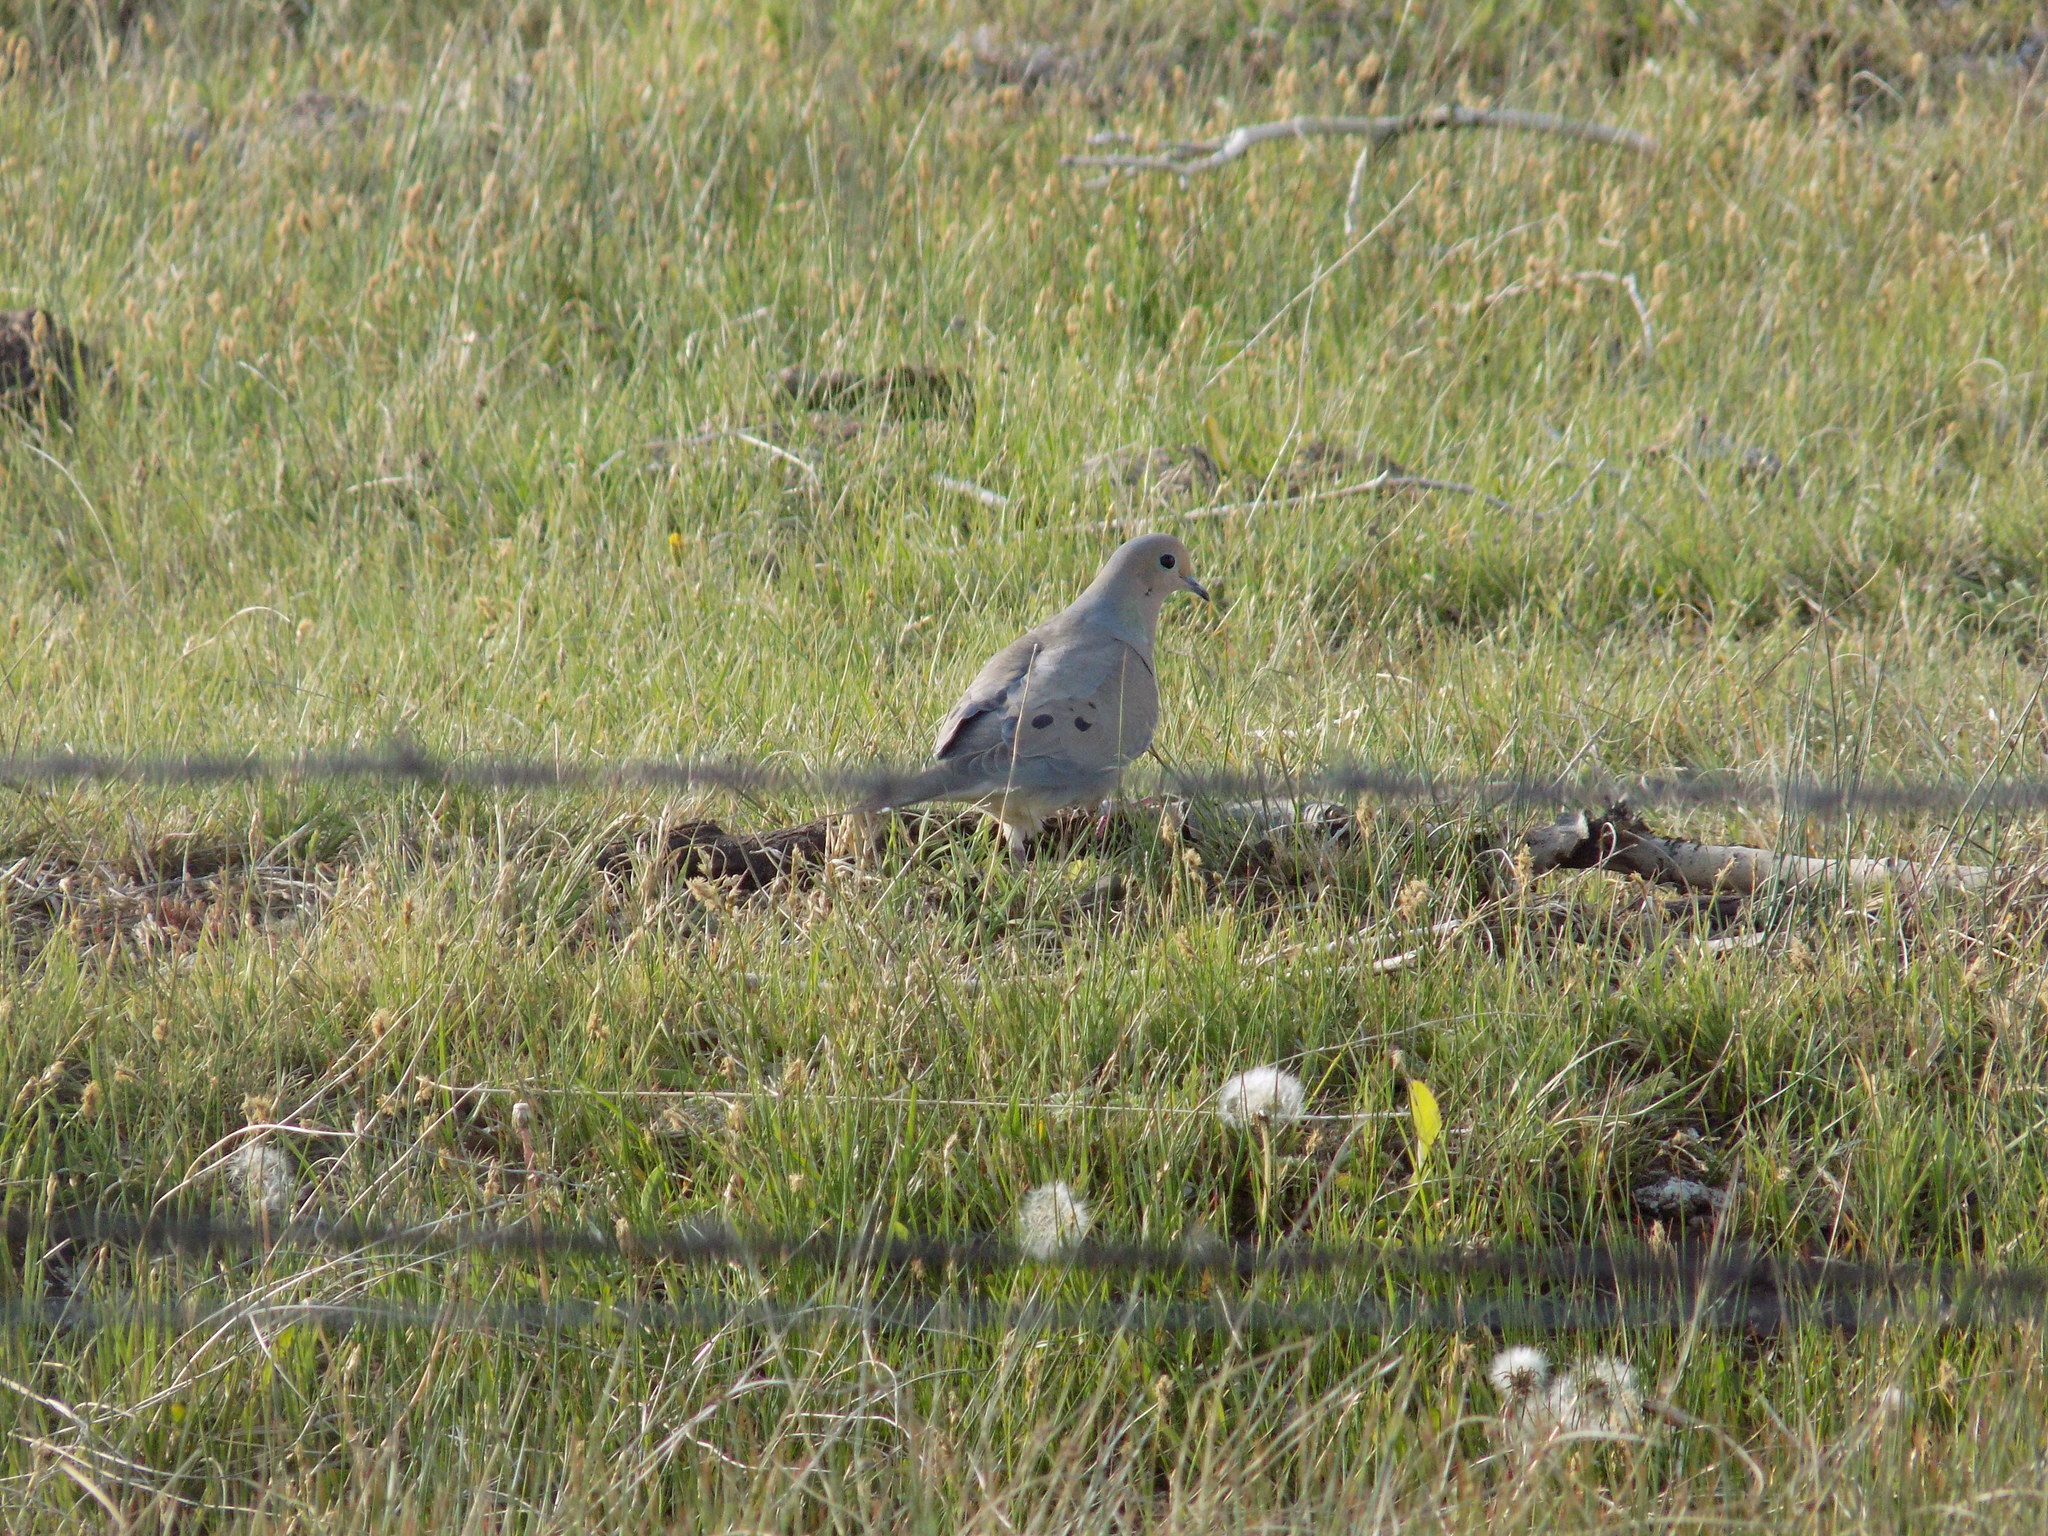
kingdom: Animalia
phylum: Chordata
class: Aves
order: Columbiformes
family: Columbidae
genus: Zenaida
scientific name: Zenaida macroura
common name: Mourning dove
